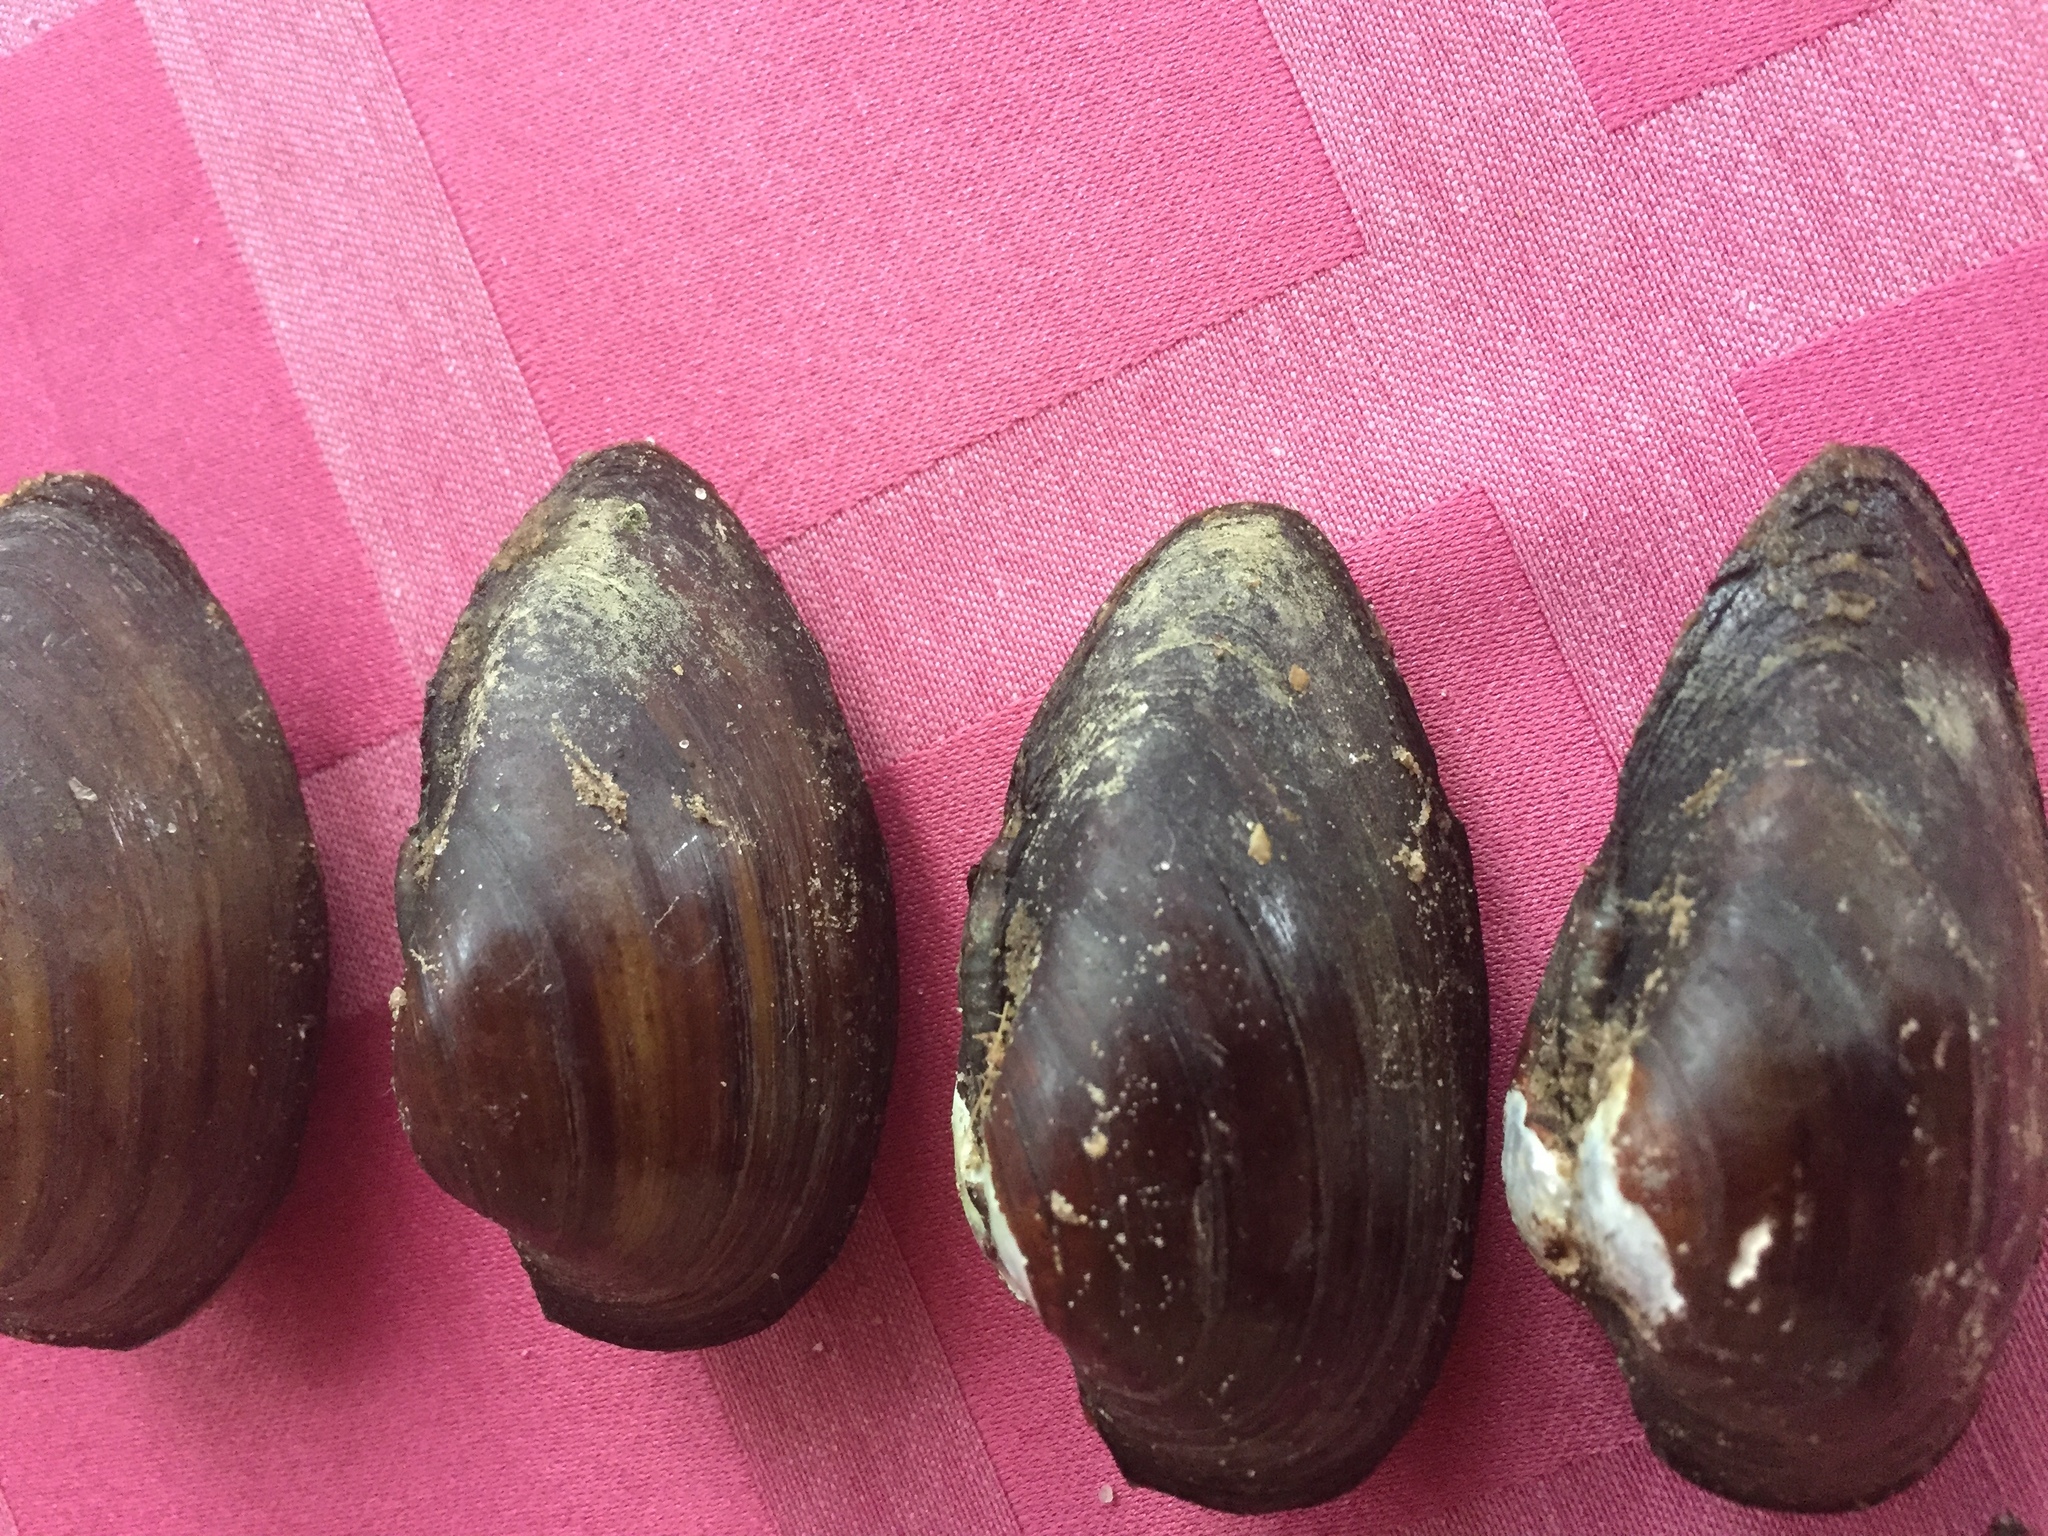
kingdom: Animalia
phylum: Mollusca
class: Bivalvia
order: Unionida
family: Unionidae
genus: Unio
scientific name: Unio tumidus
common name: Swollen river mussel
